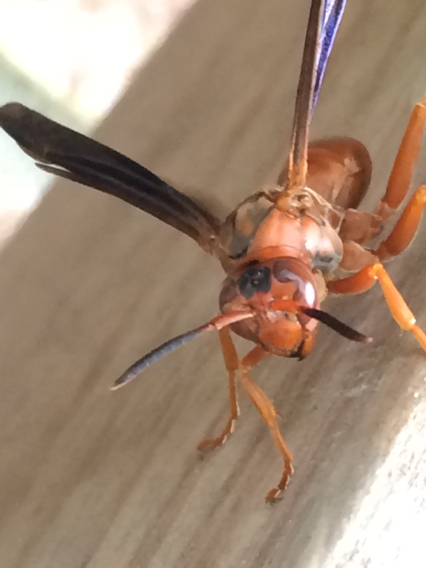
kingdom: Animalia
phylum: Arthropoda
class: Insecta
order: Hymenoptera
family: Eumenidae
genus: Polistes
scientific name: Polistes carolina
